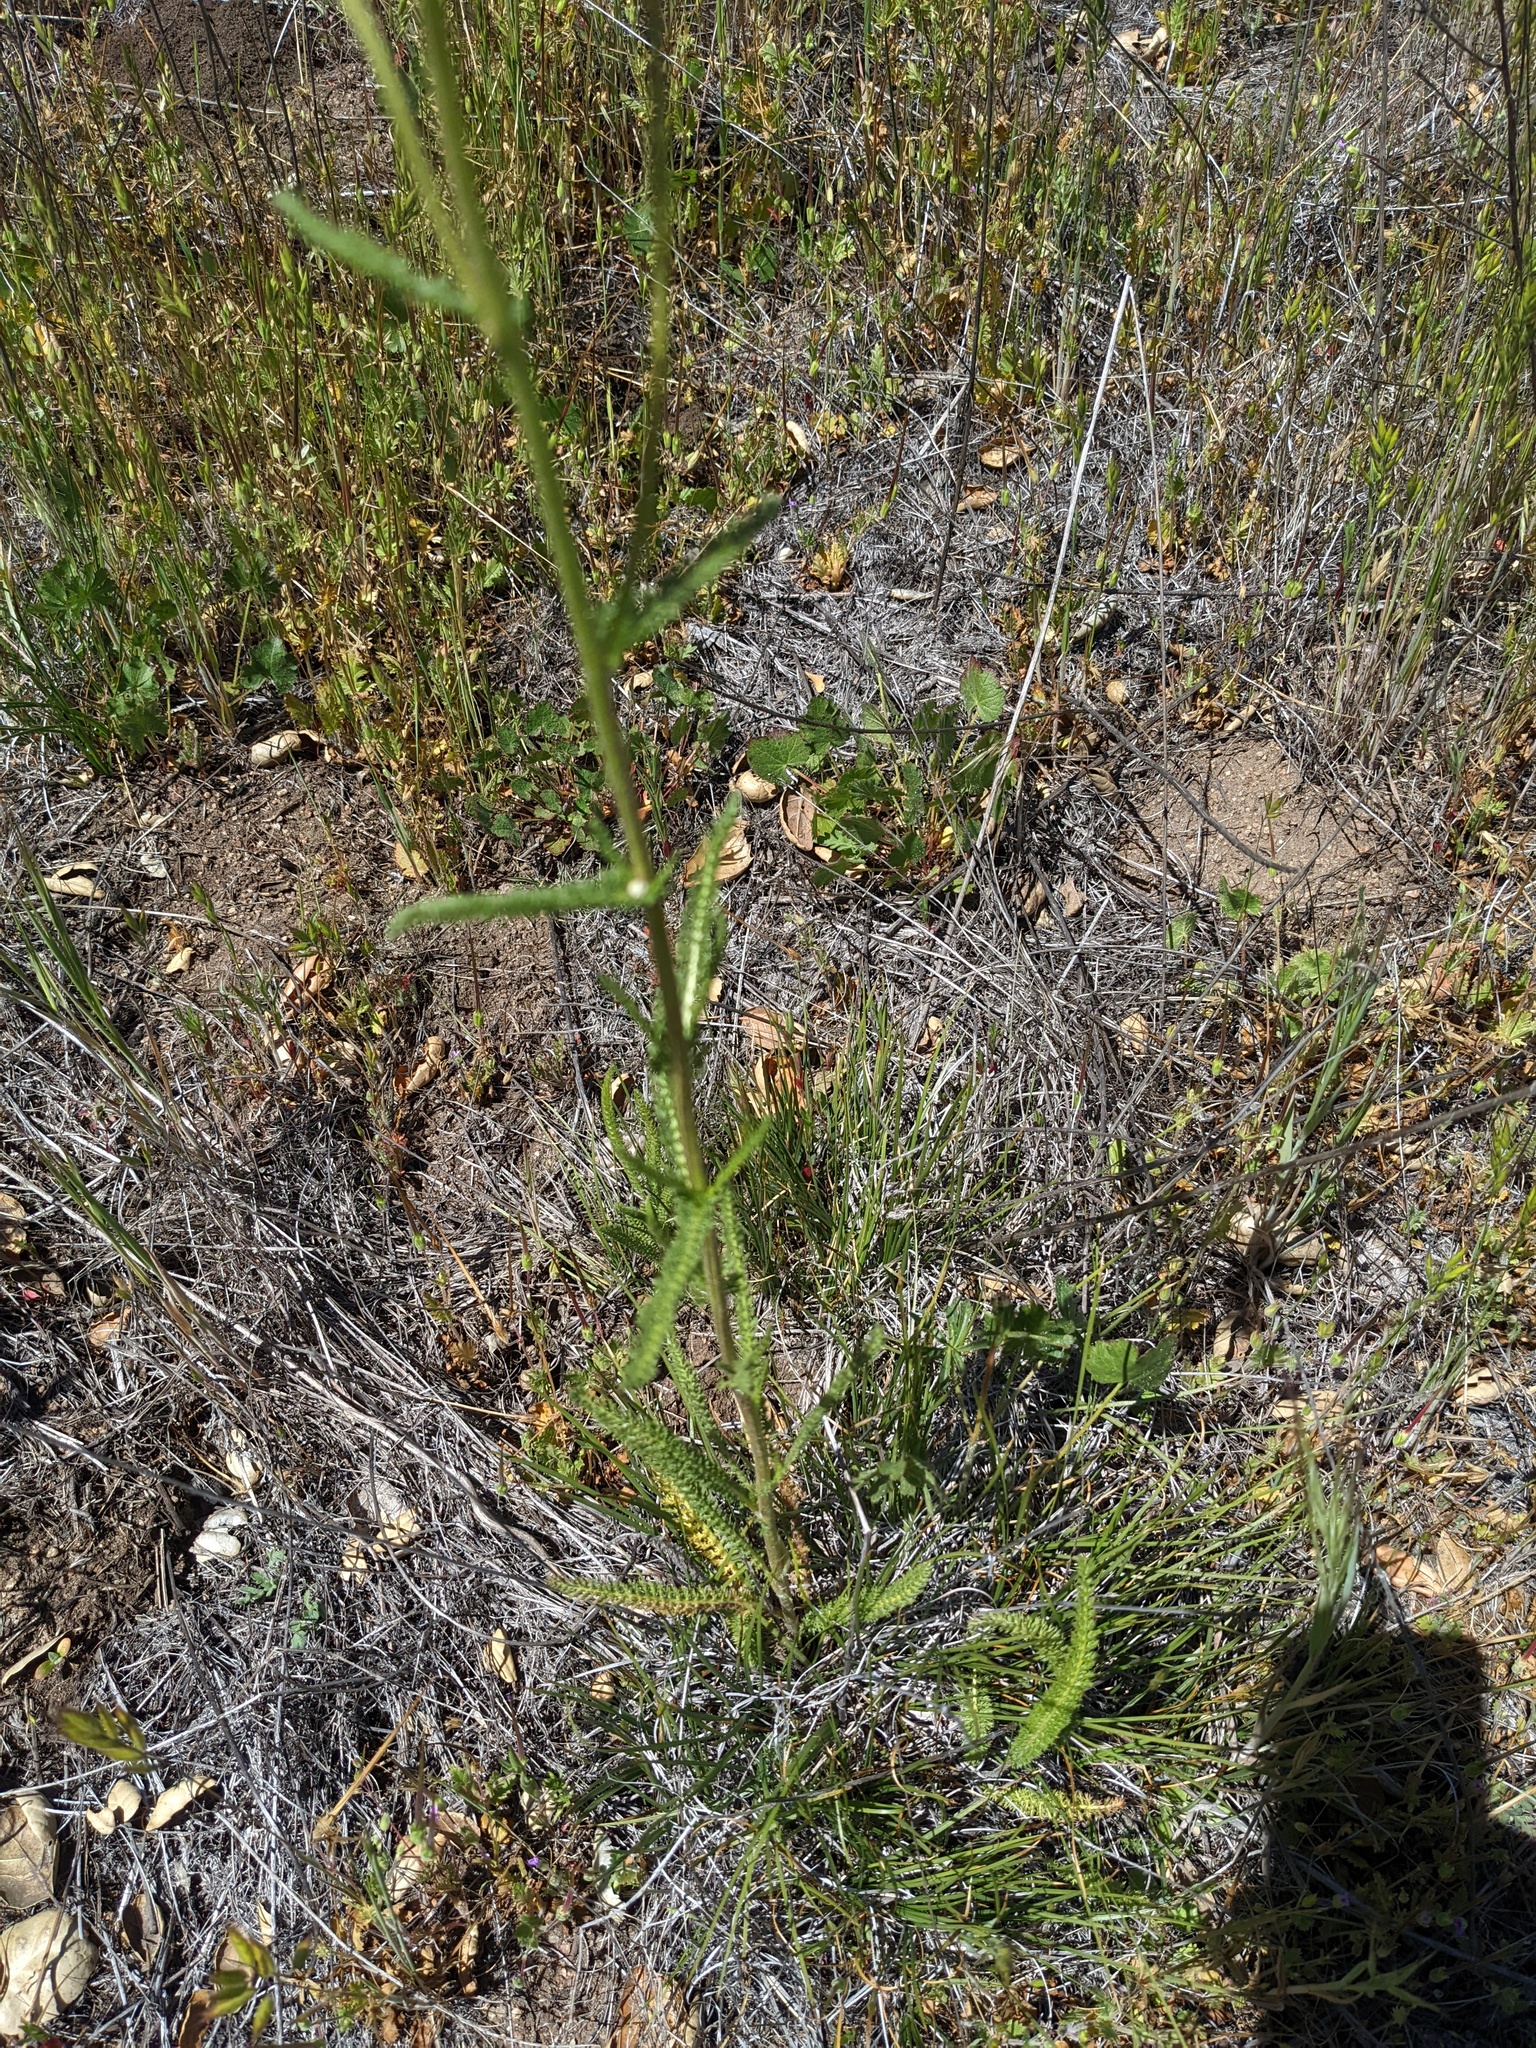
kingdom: Plantae
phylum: Tracheophyta
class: Magnoliopsida
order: Asterales
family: Asteraceae
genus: Achillea
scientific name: Achillea millefolium
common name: Yarrow
